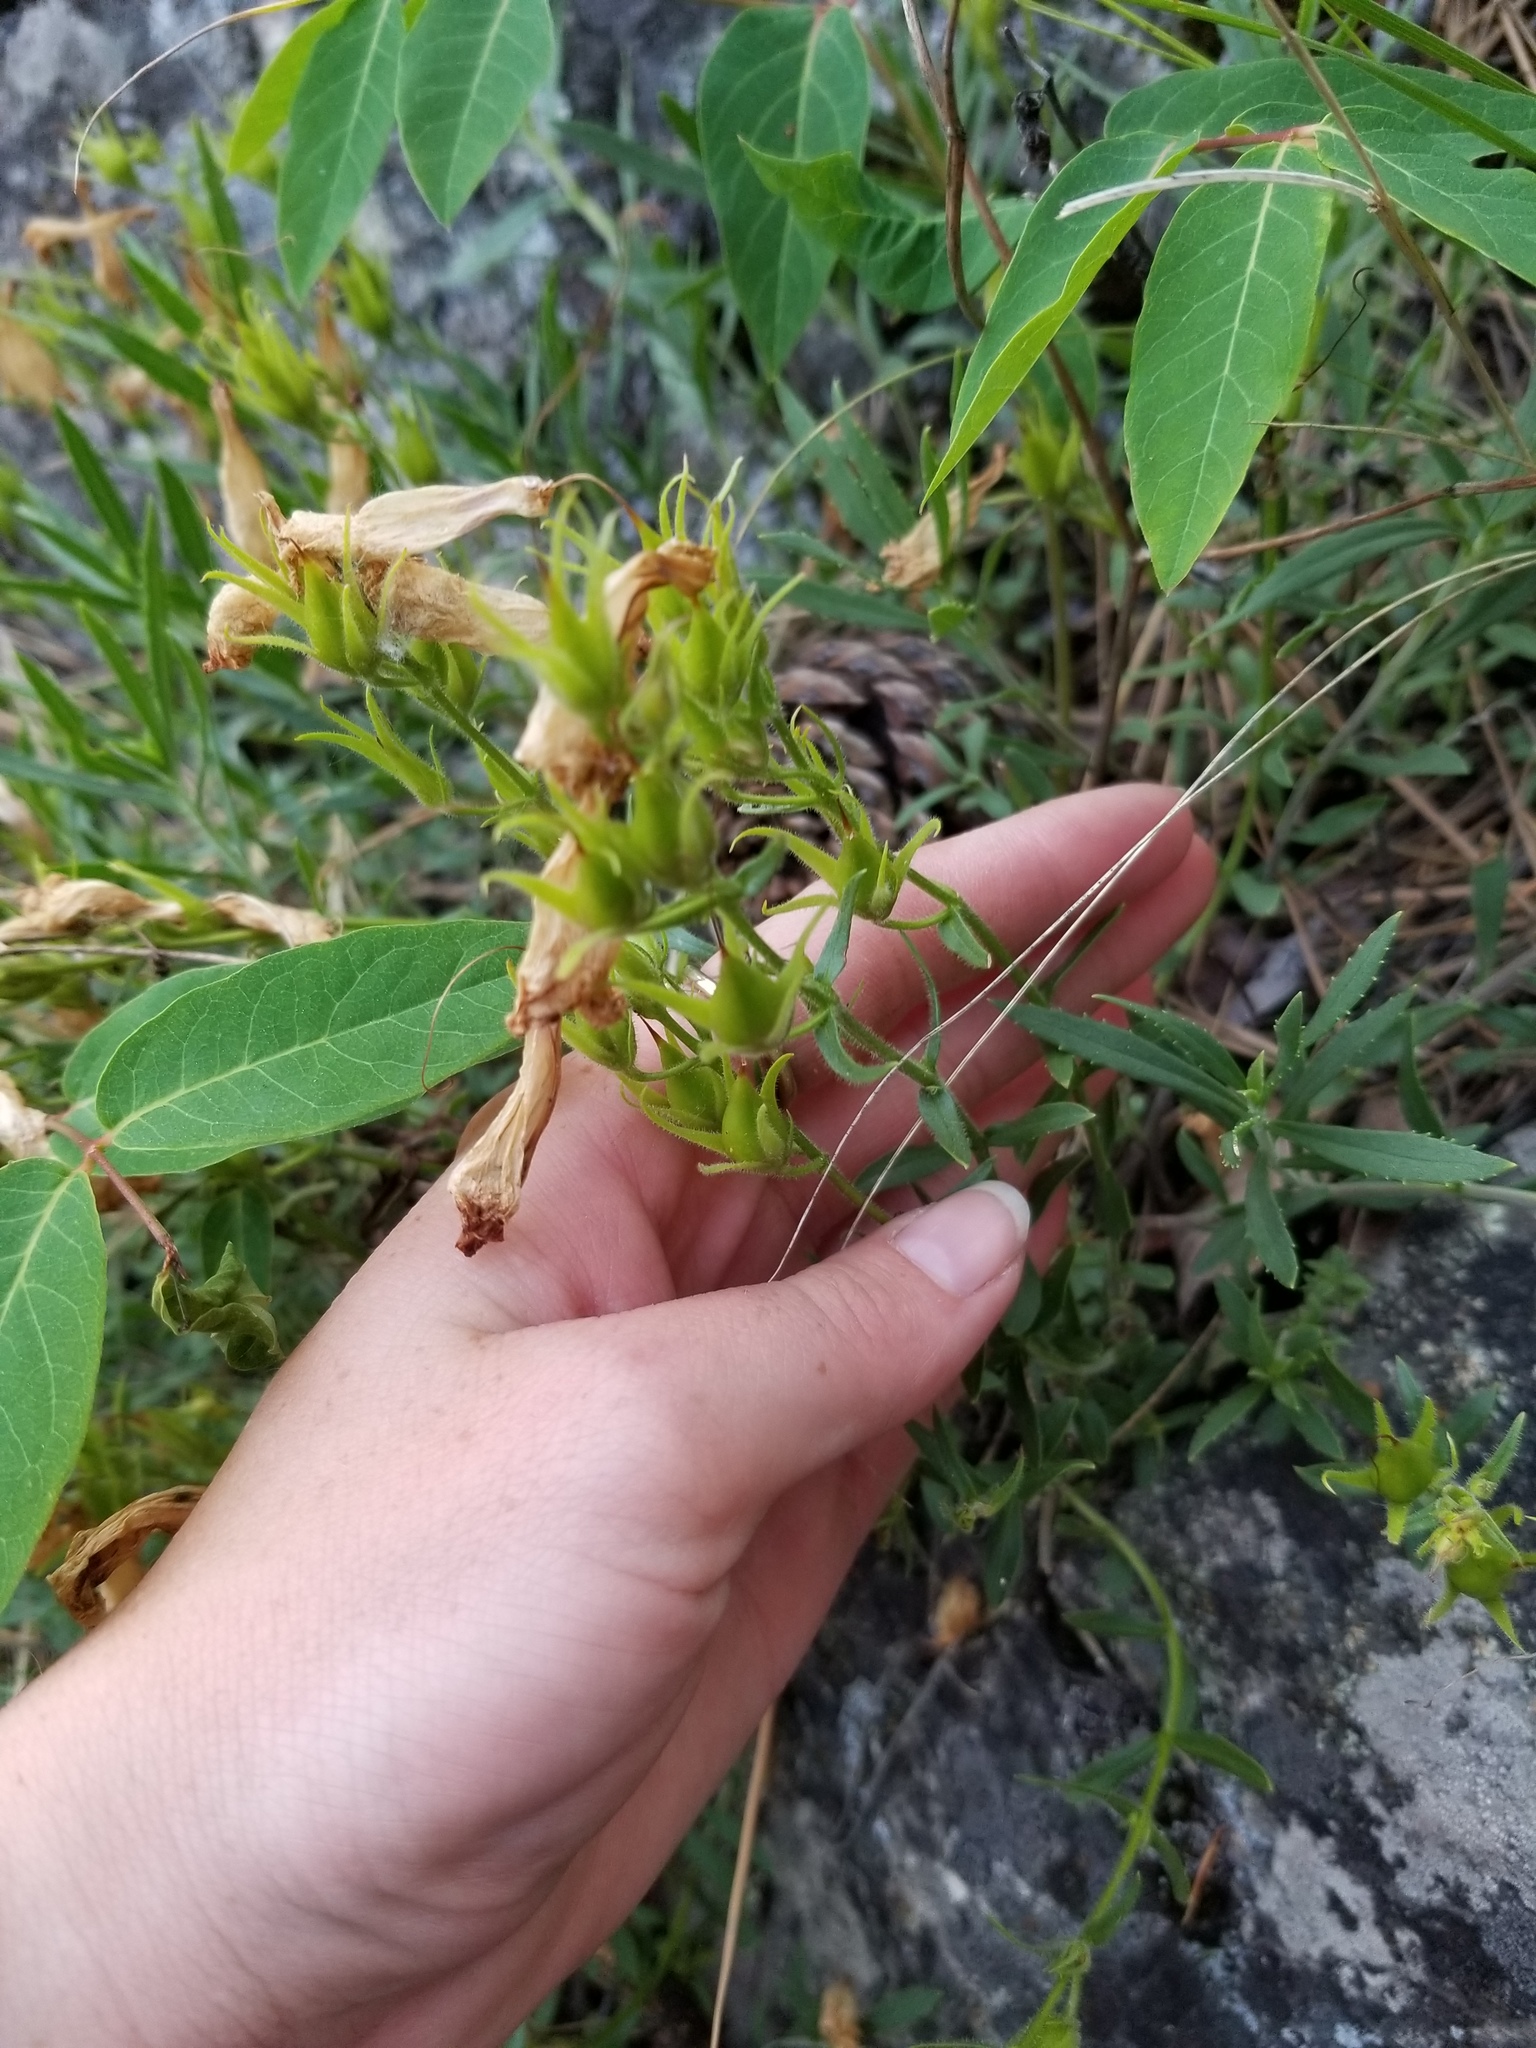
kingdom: Plantae
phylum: Tracheophyta
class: Magnoliopsida
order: Lamiales
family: Plantaginaceae
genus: Penstemon
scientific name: Penstemon fruticosus
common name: Bush penstemon
